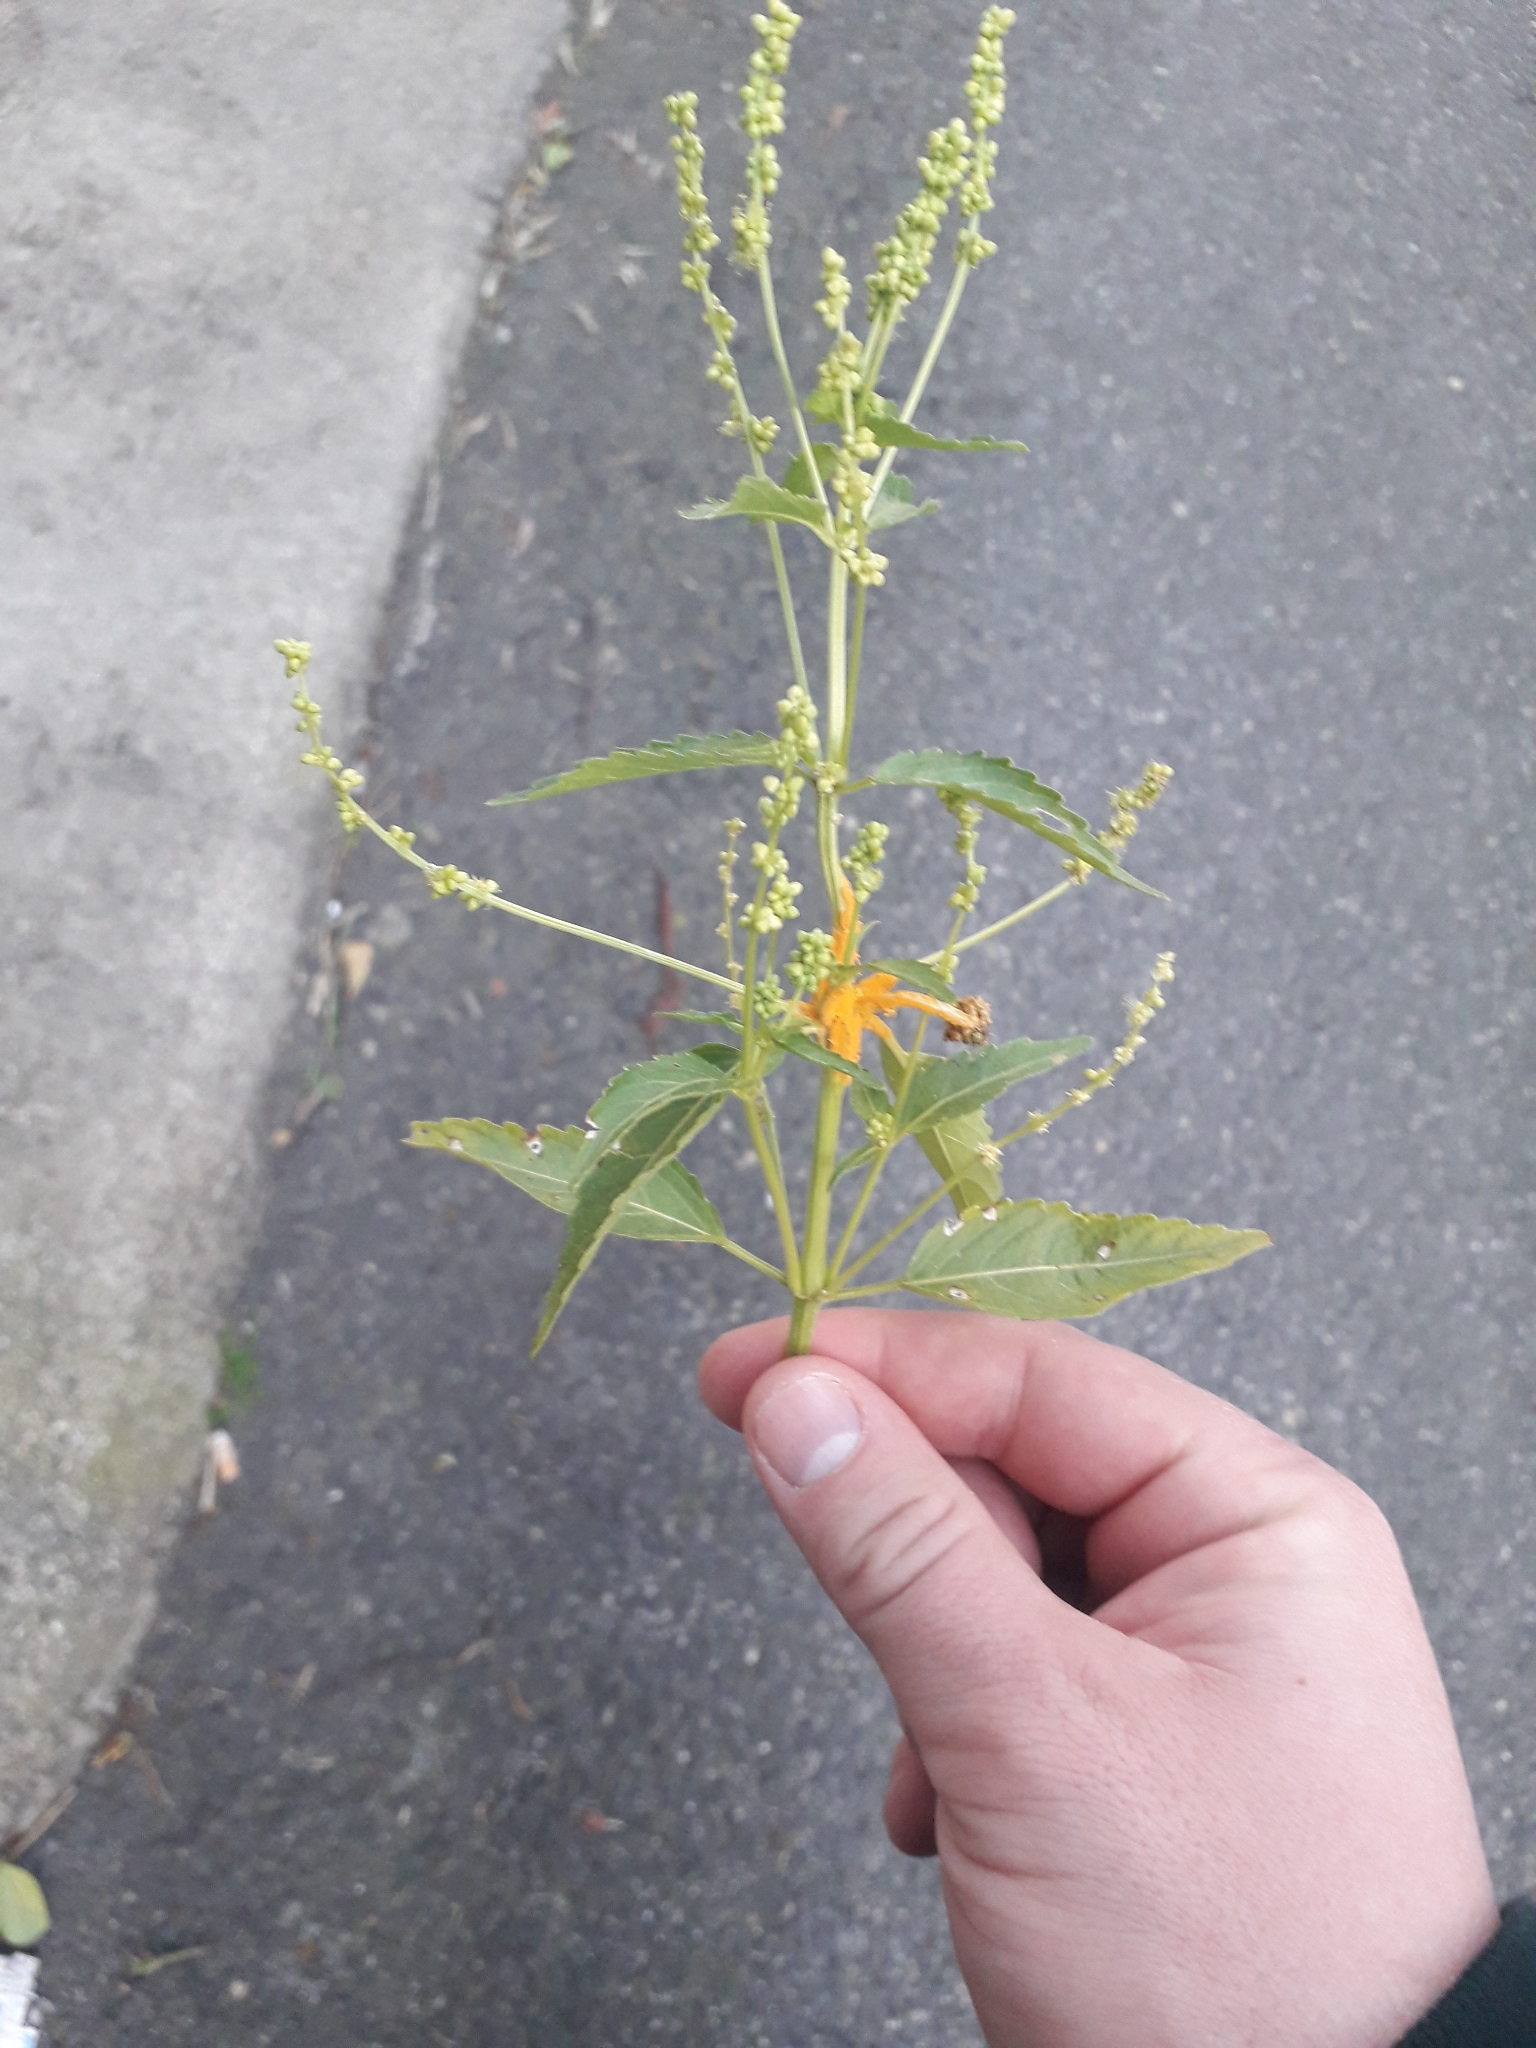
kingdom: Plantae
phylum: Tracheophyta
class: Magnoliopsida
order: Malpighiales
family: Euphorbiaceae
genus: Mercurialis
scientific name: Mercurialis annua
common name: Annual mercury
